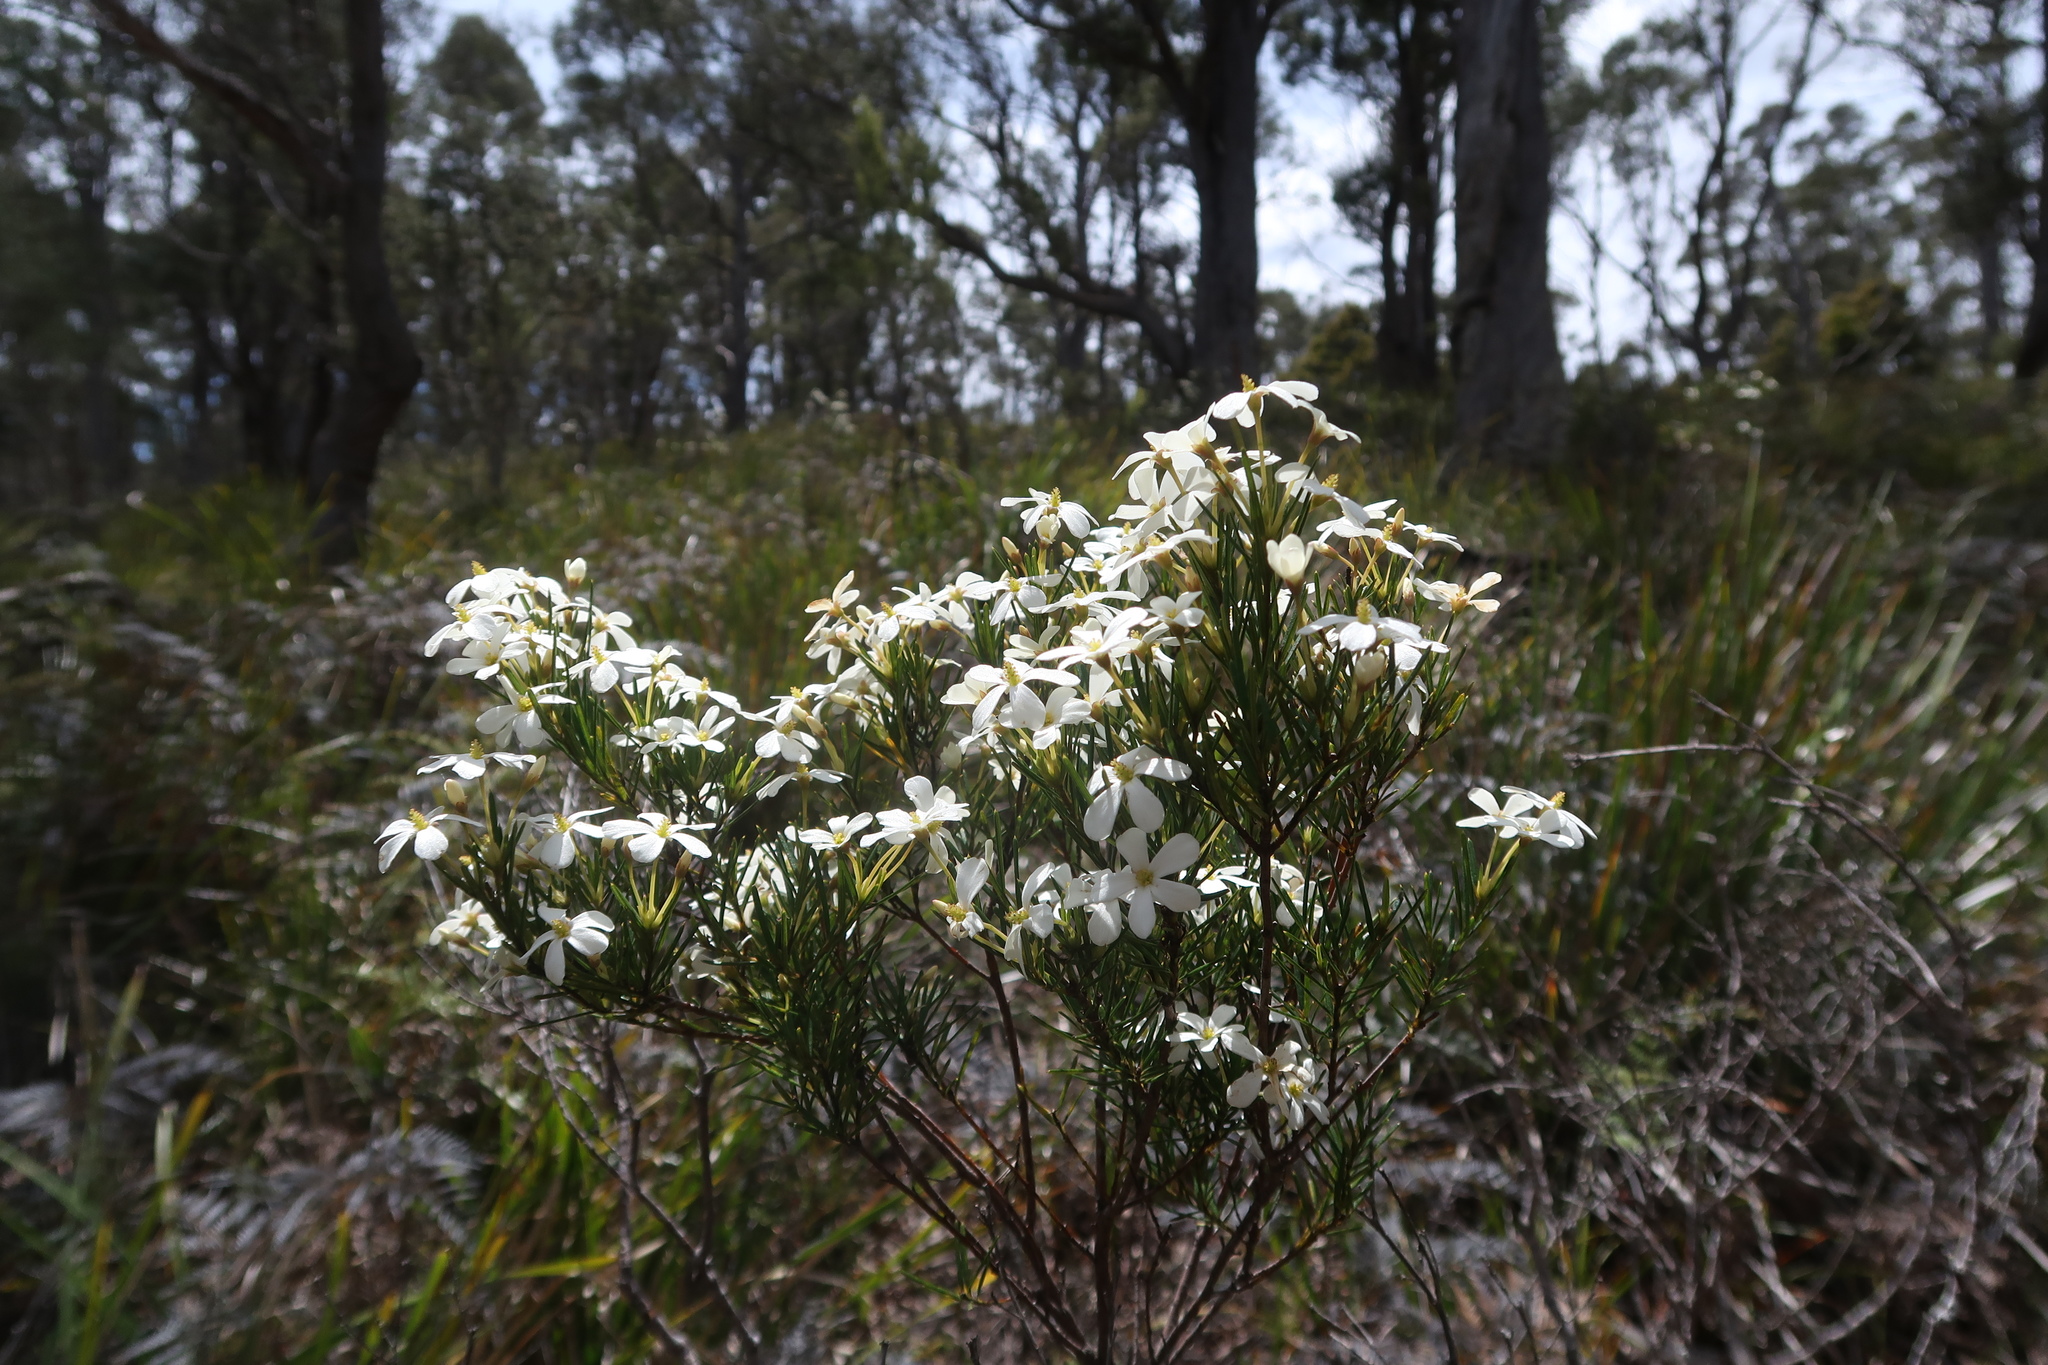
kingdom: Plantae
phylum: Tracheophyta
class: Magnoliopsida
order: Malpighiales
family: Euphorbiaceae
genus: Ricinocarpos
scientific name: Ricinocarpos pinifolius
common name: Weddingbush
